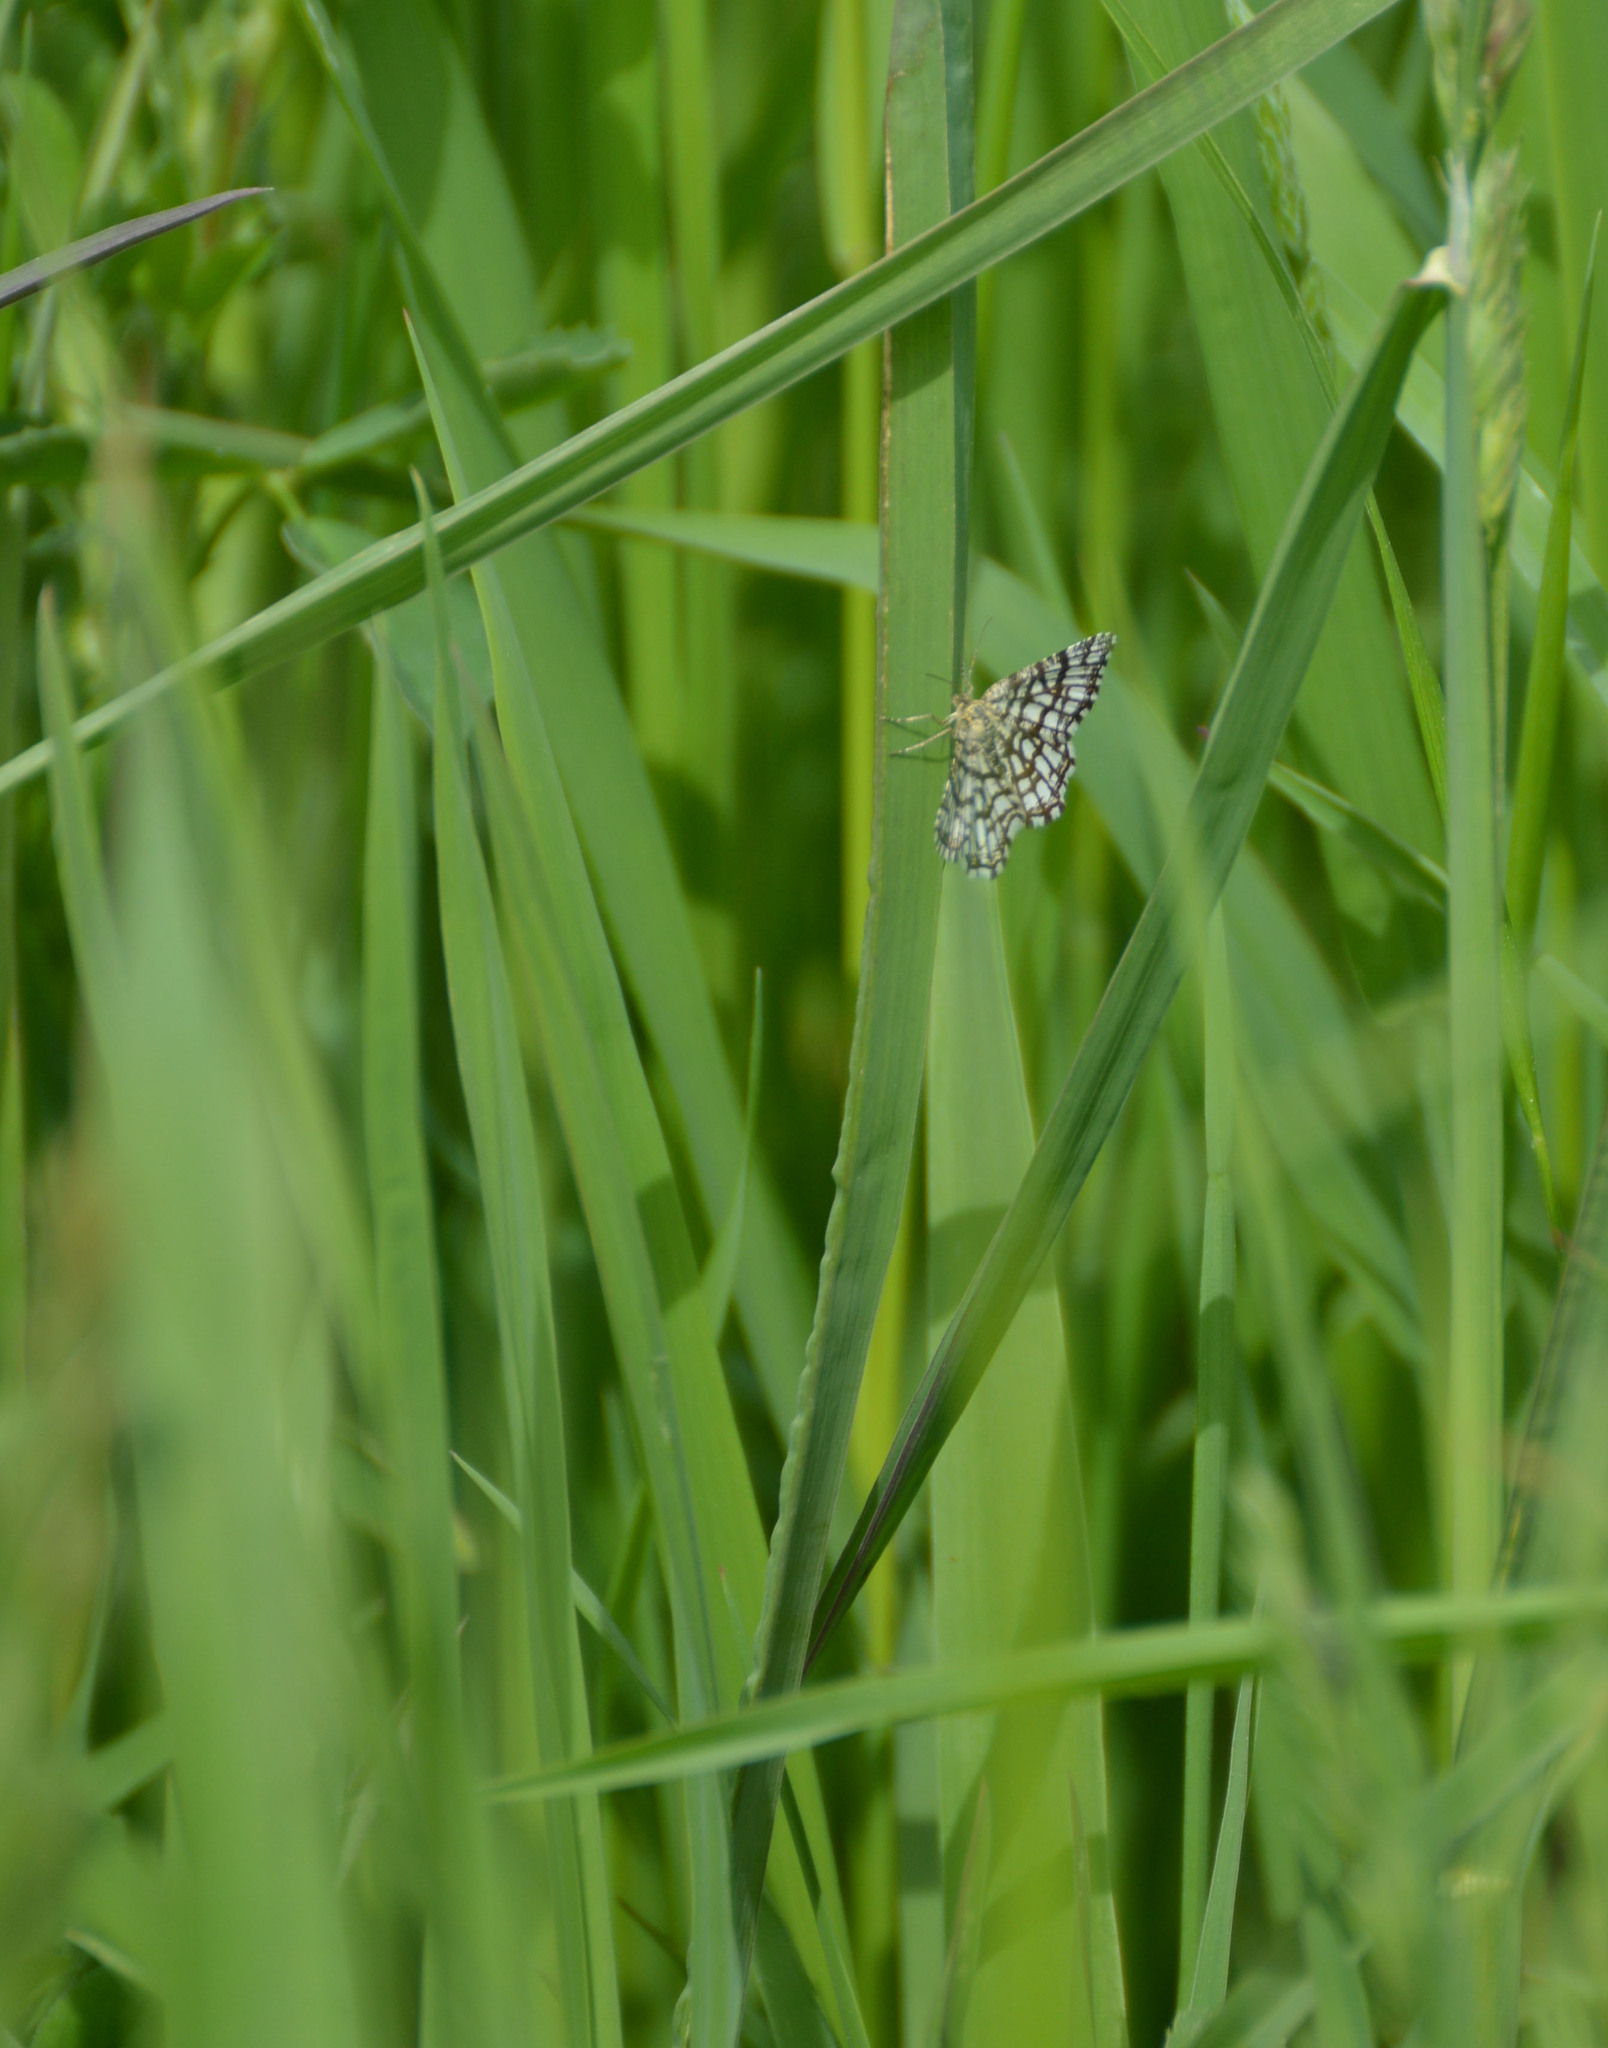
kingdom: Animalia
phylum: Arthropoda
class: Insecta
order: Lepidoptera
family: Geometridae
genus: Chiasmia
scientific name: Chiasmia clathrata
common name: Latticed heath
